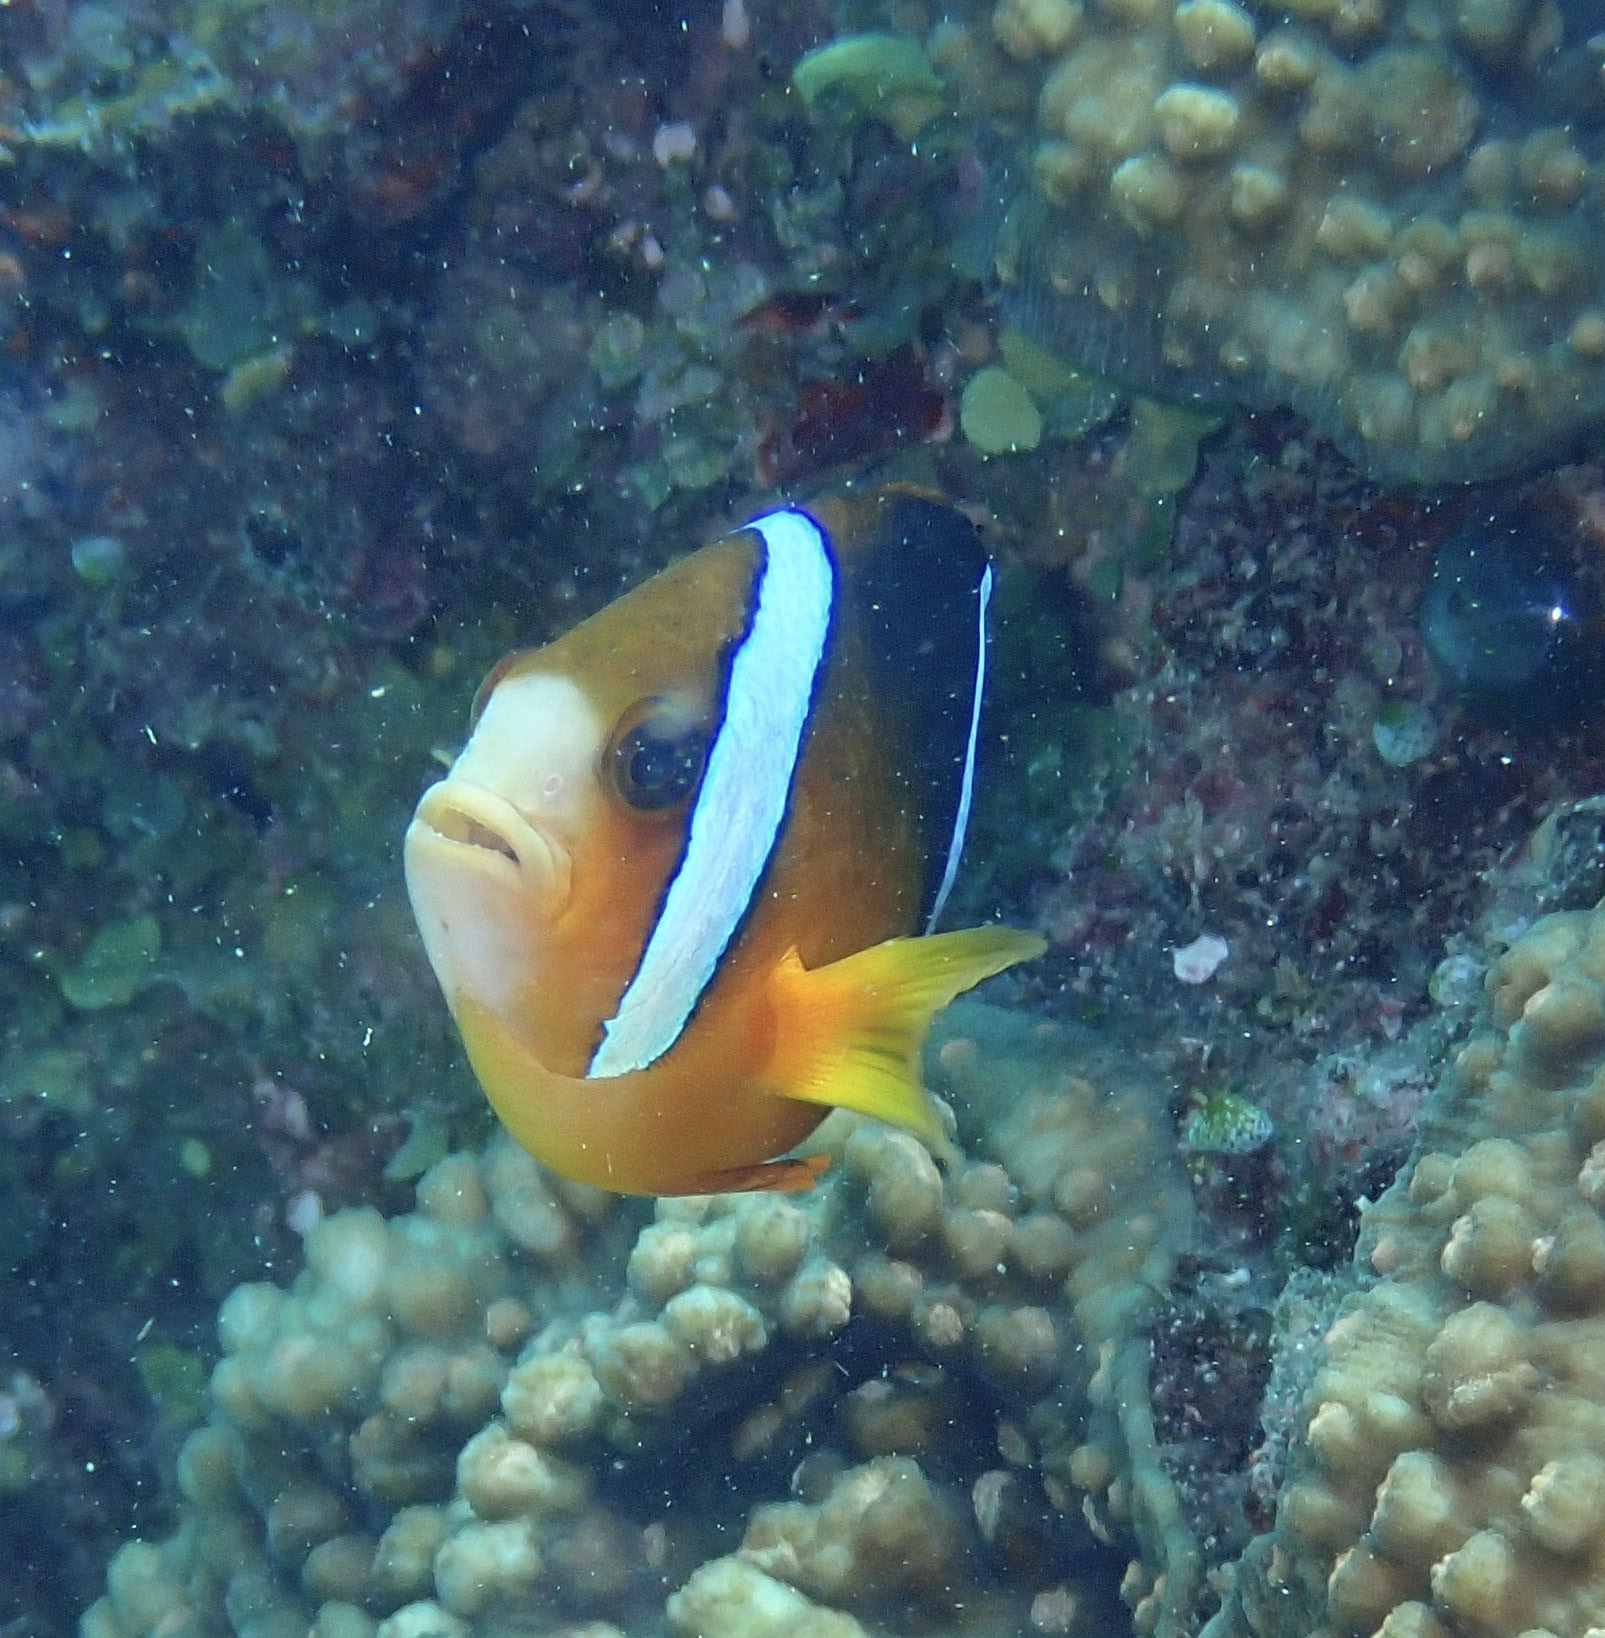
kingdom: Animalia
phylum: Chordata
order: Perciformes
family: Pomacentridae
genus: Amphiprion
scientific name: Amphiprion clarkii
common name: Clark's anemonefish
